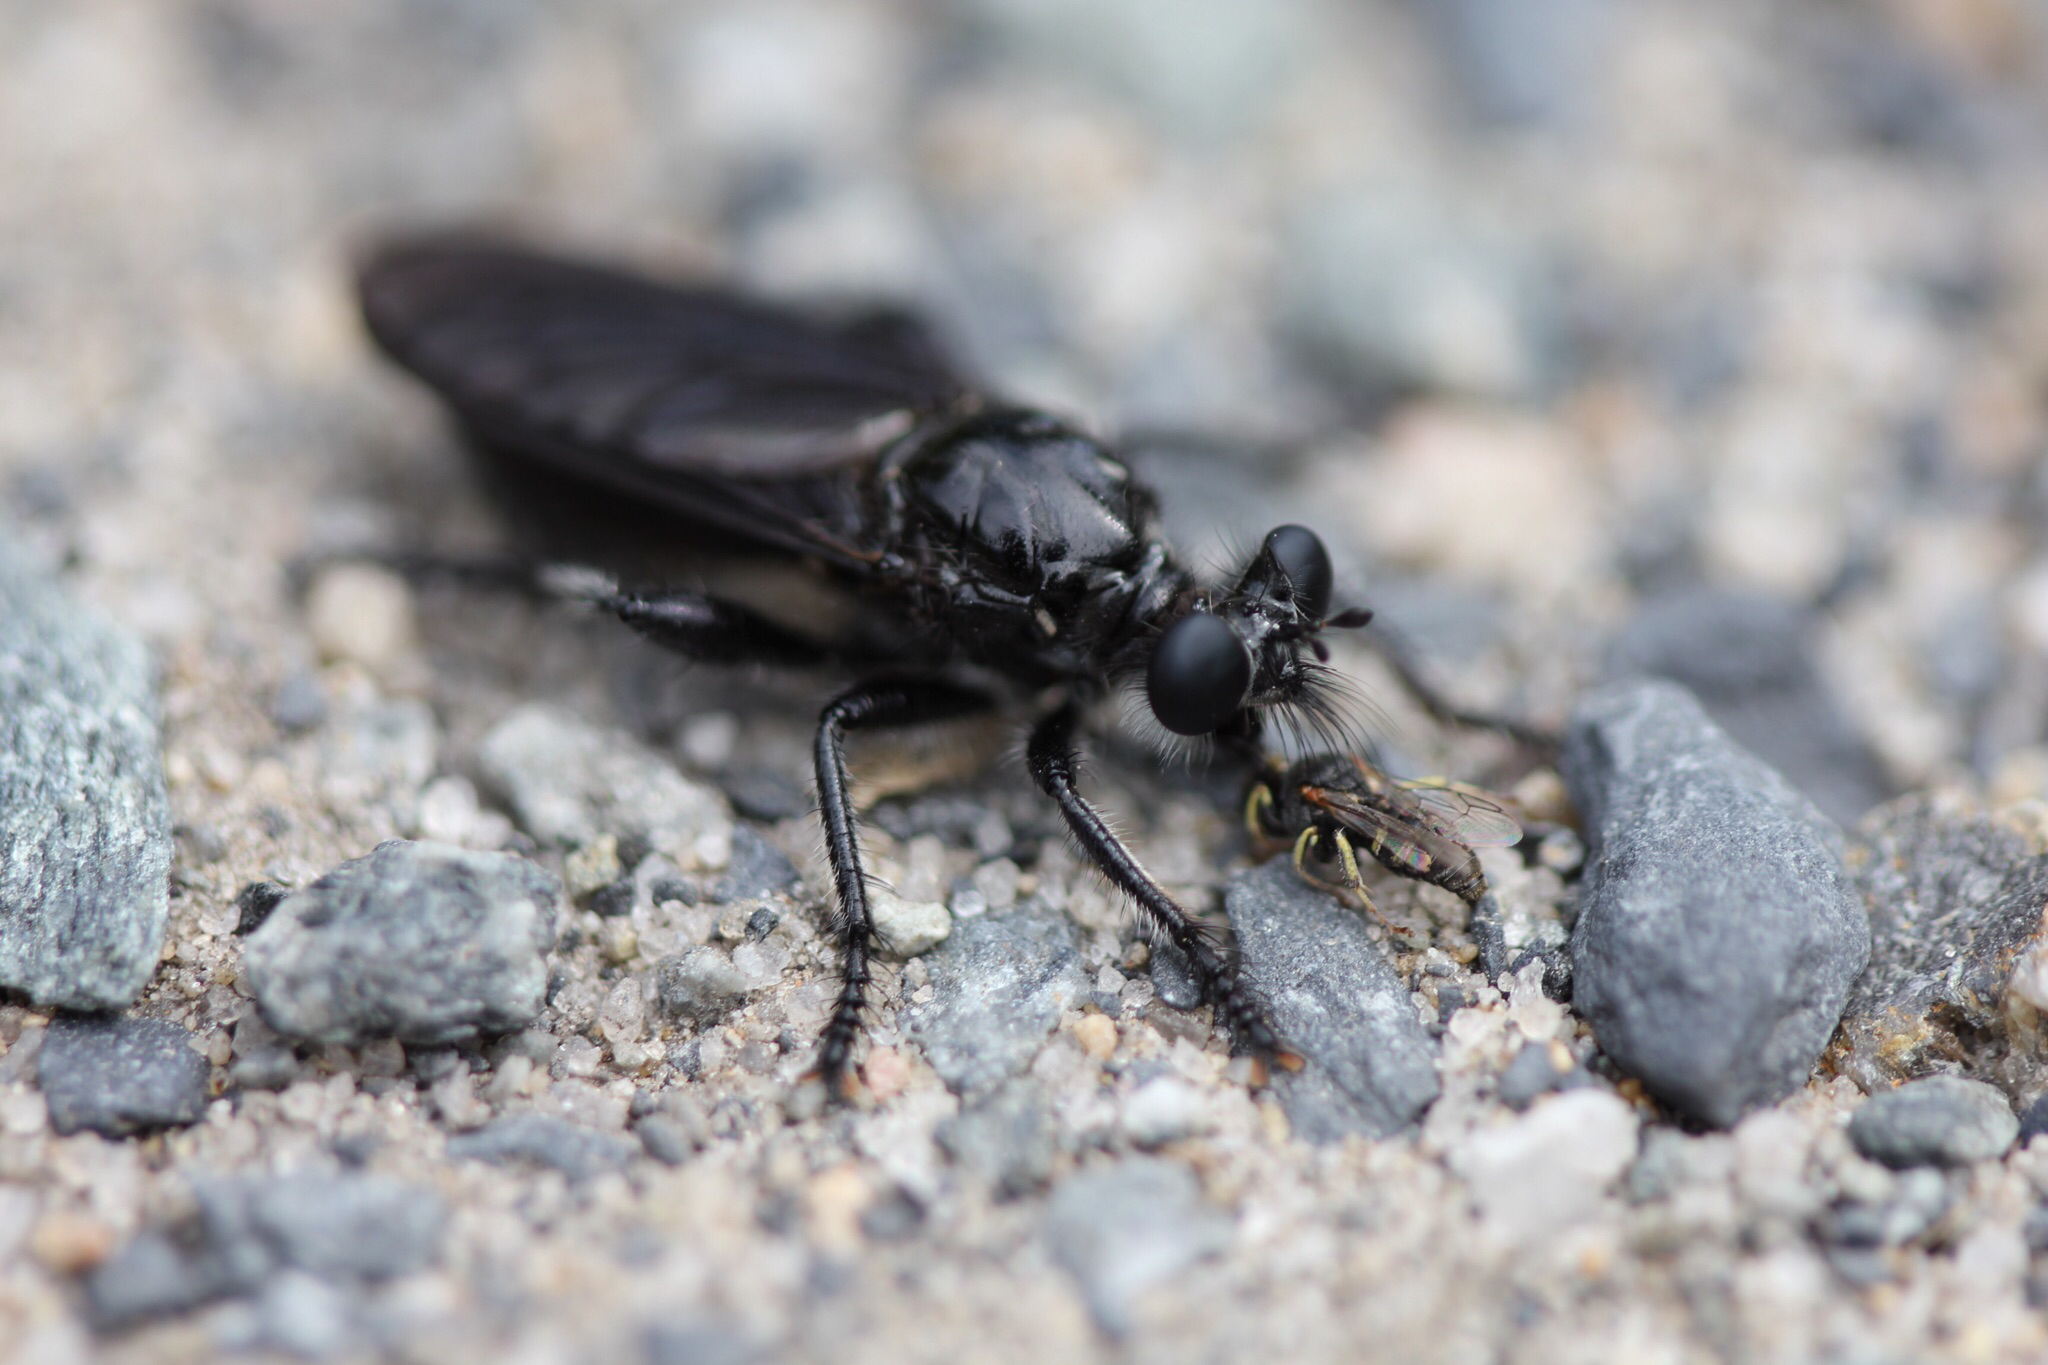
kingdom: Animalia
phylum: Arthropoda
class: Insecta
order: Diptera
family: Asilidae
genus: Pogonosoma
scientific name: Pogonosoma dorsatum
